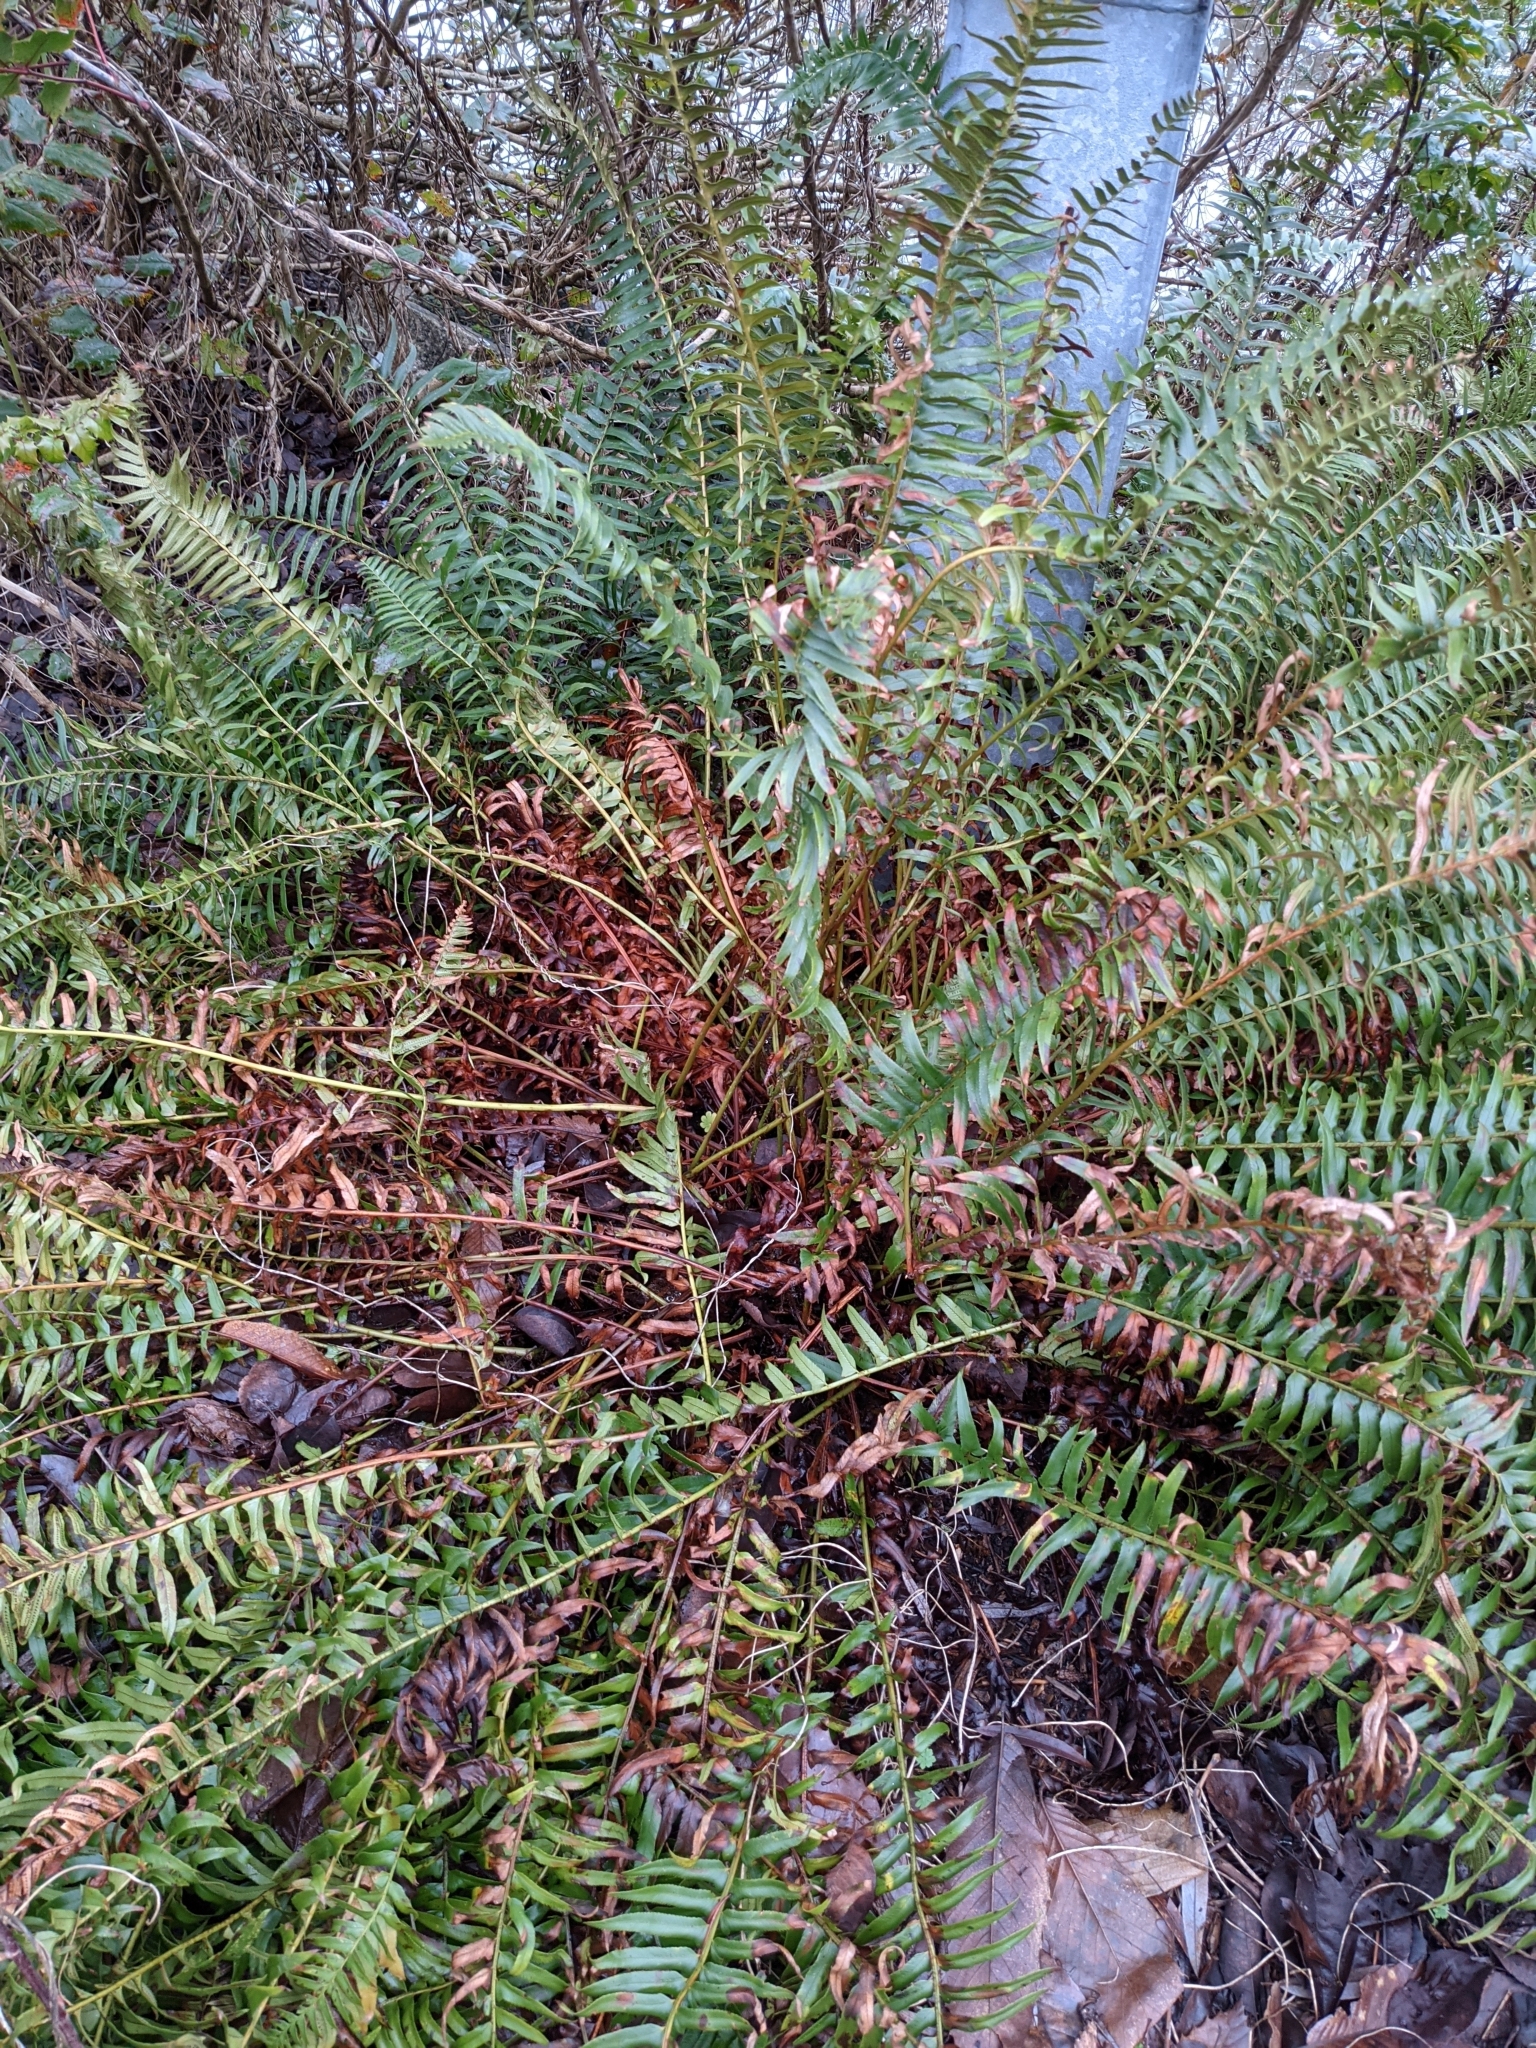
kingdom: Plantae
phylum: Tracheophyta
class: Polypodiopsida
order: Polypodiales
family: Dryopteridaceae
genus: Polystichum
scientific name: Polystichum munitum
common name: Western sword-fern
